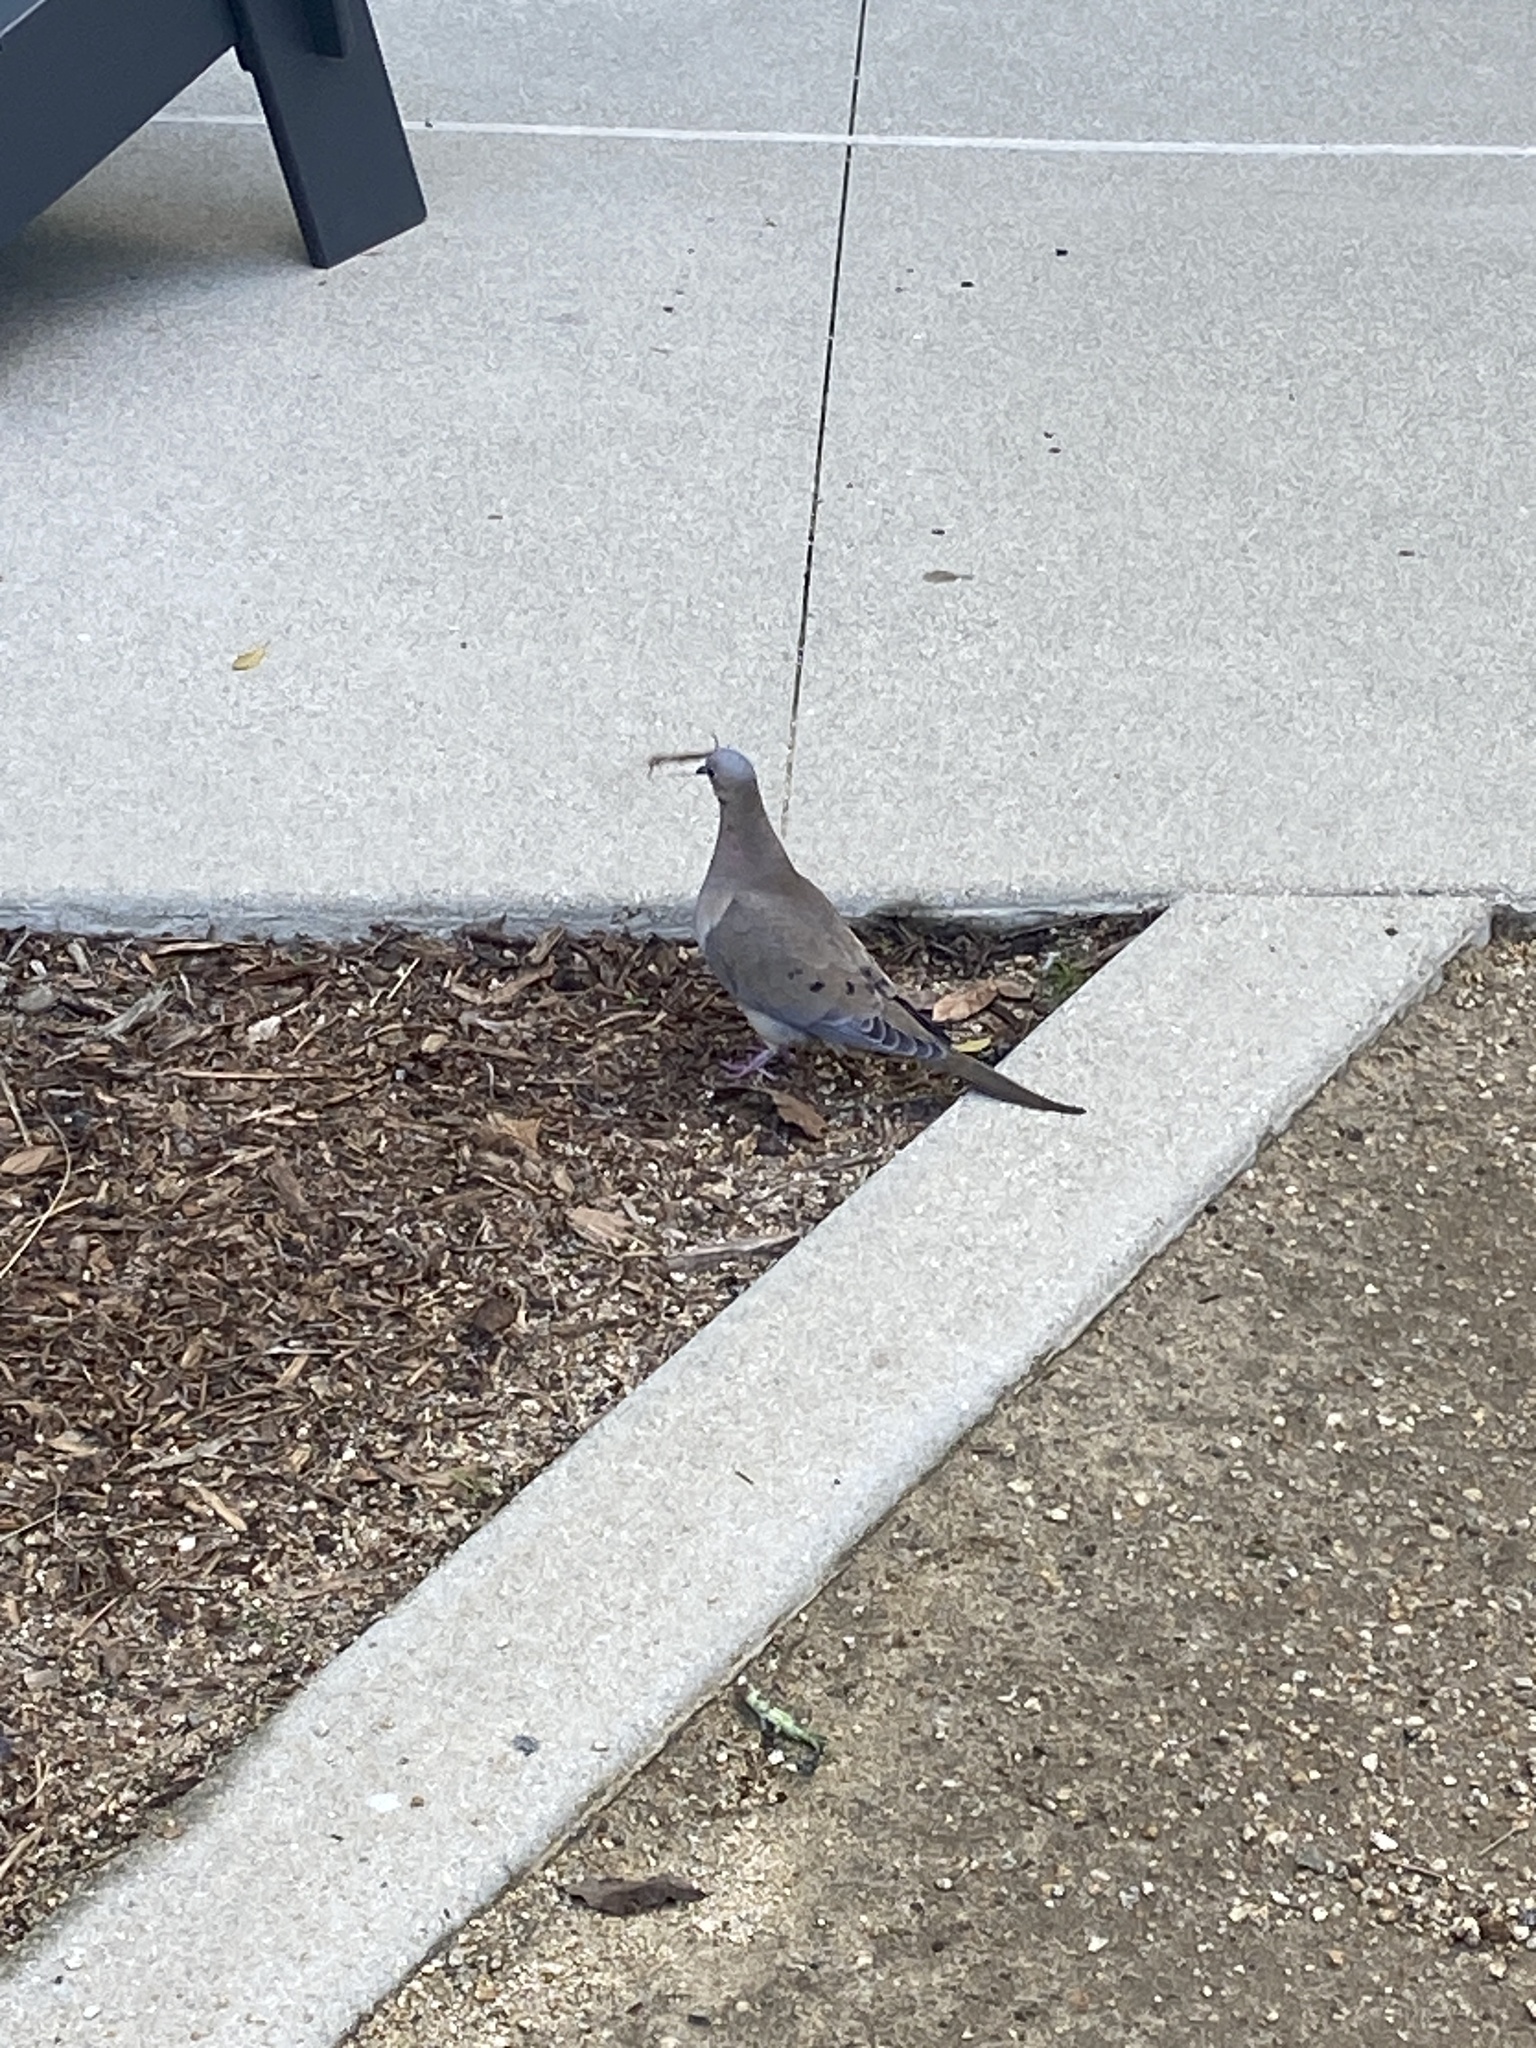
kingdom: Animalia
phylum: Chordata
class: Aves
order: Columbiformes
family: Columbidae
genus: Zenaida
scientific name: Zenaida macroura
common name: Mourning dove
